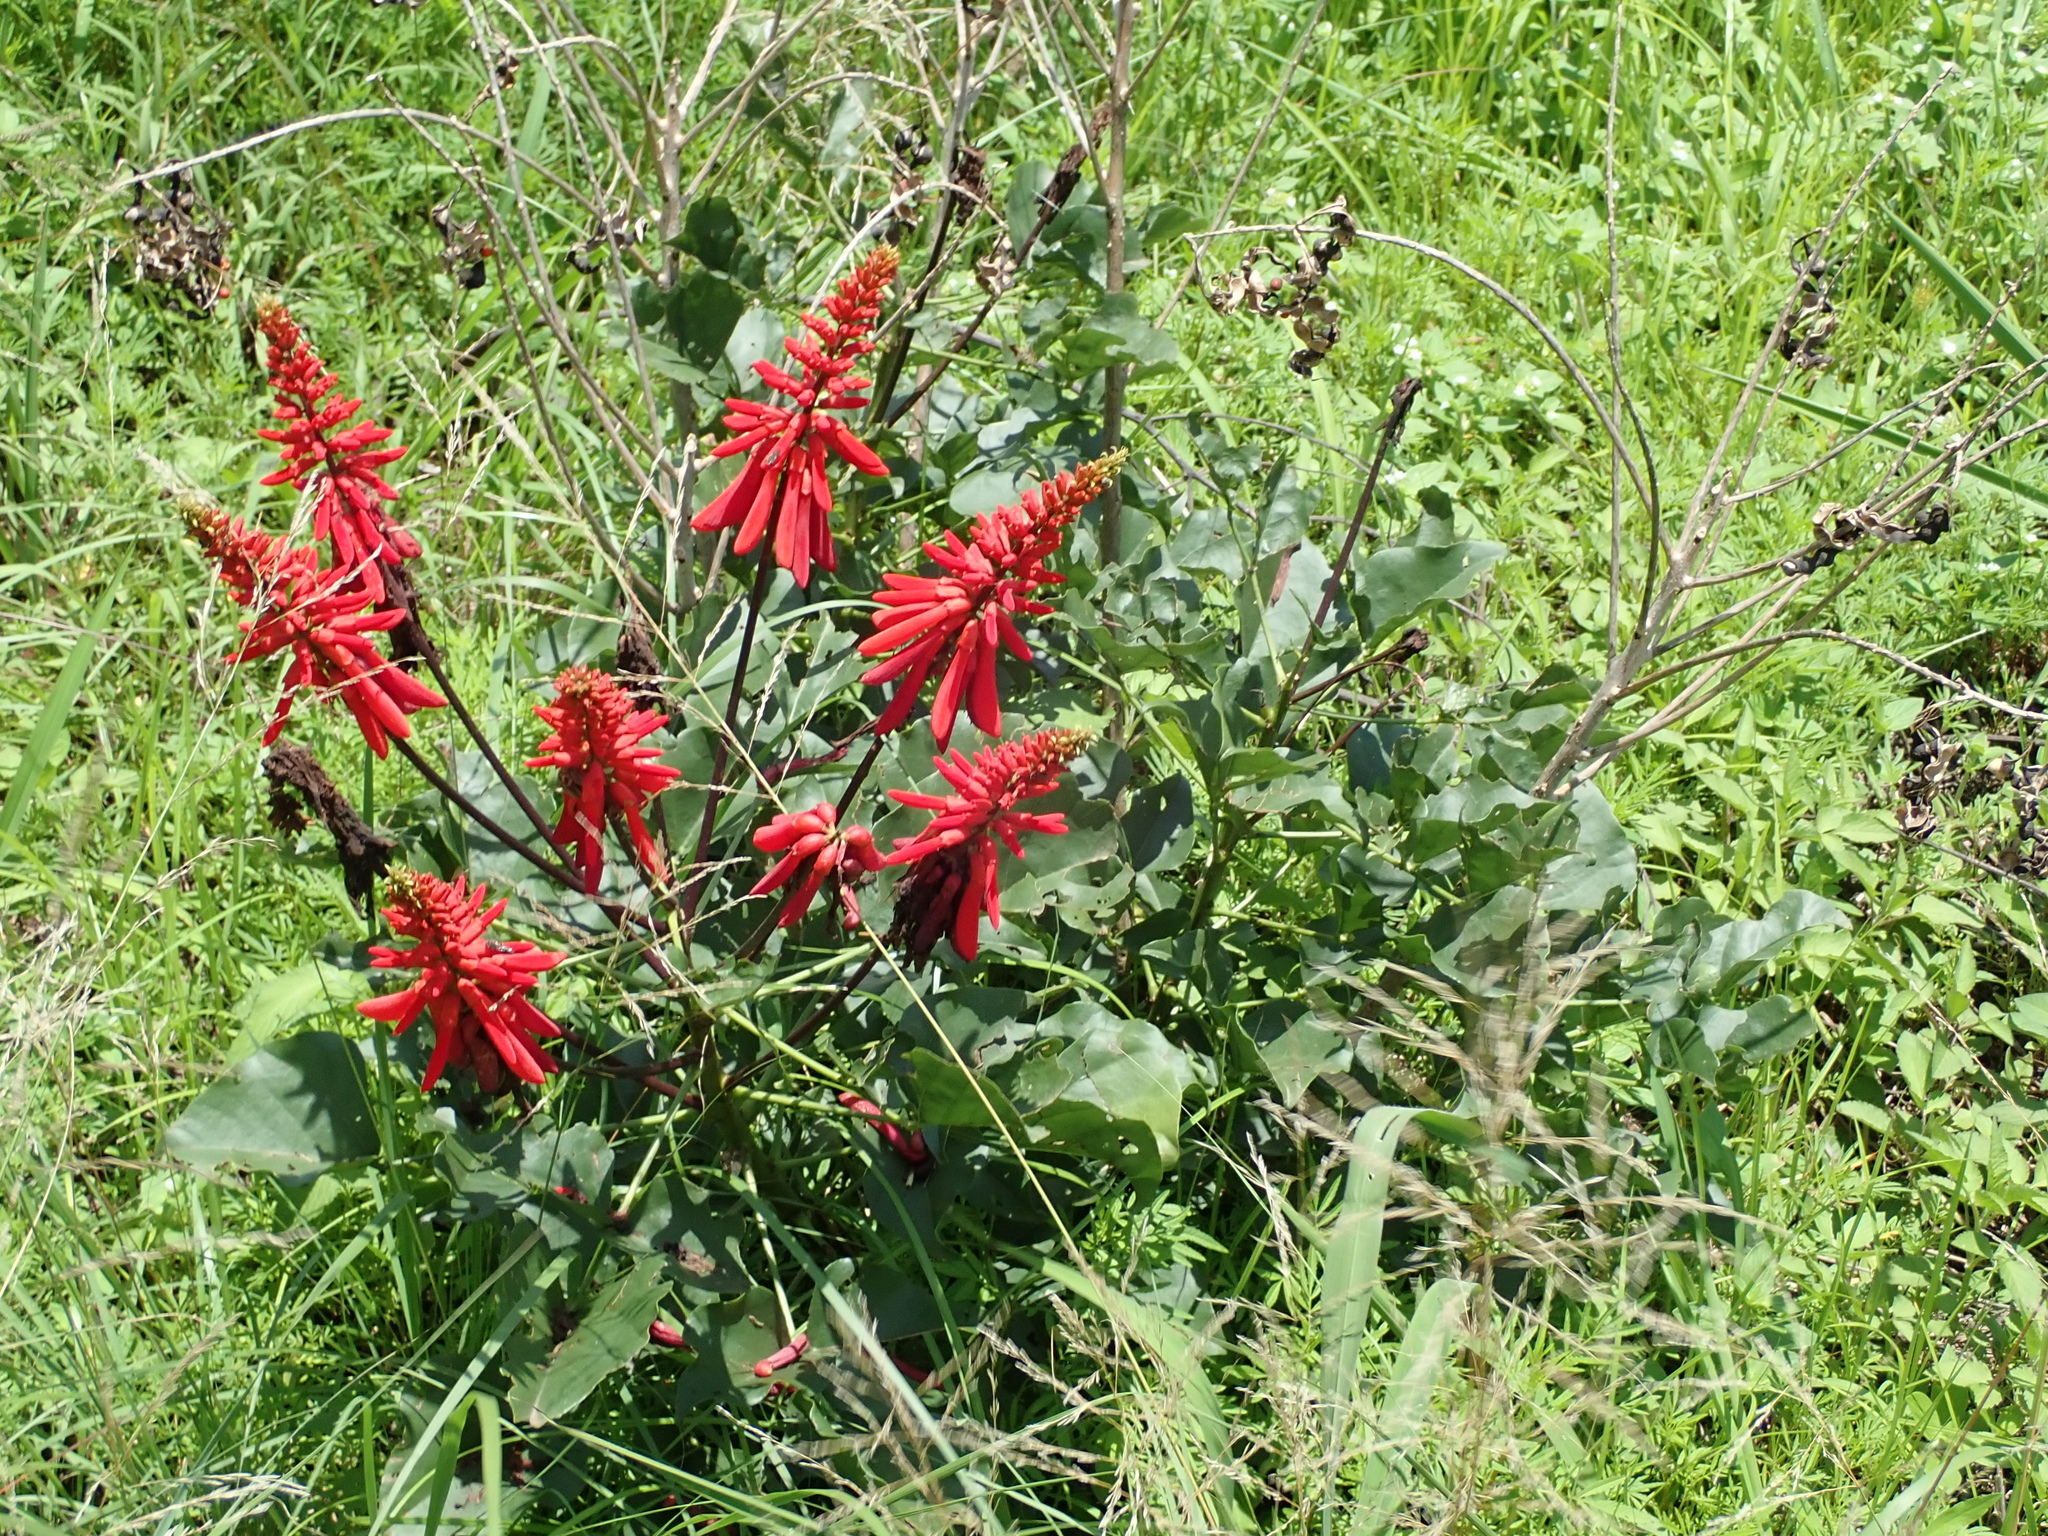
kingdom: Plantae
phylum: Tracheophyta
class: Magnoliopsida
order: Fabales
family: Fabaceae
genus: Erythrina
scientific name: Erythrina humeana
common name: Dwarf coral tree
